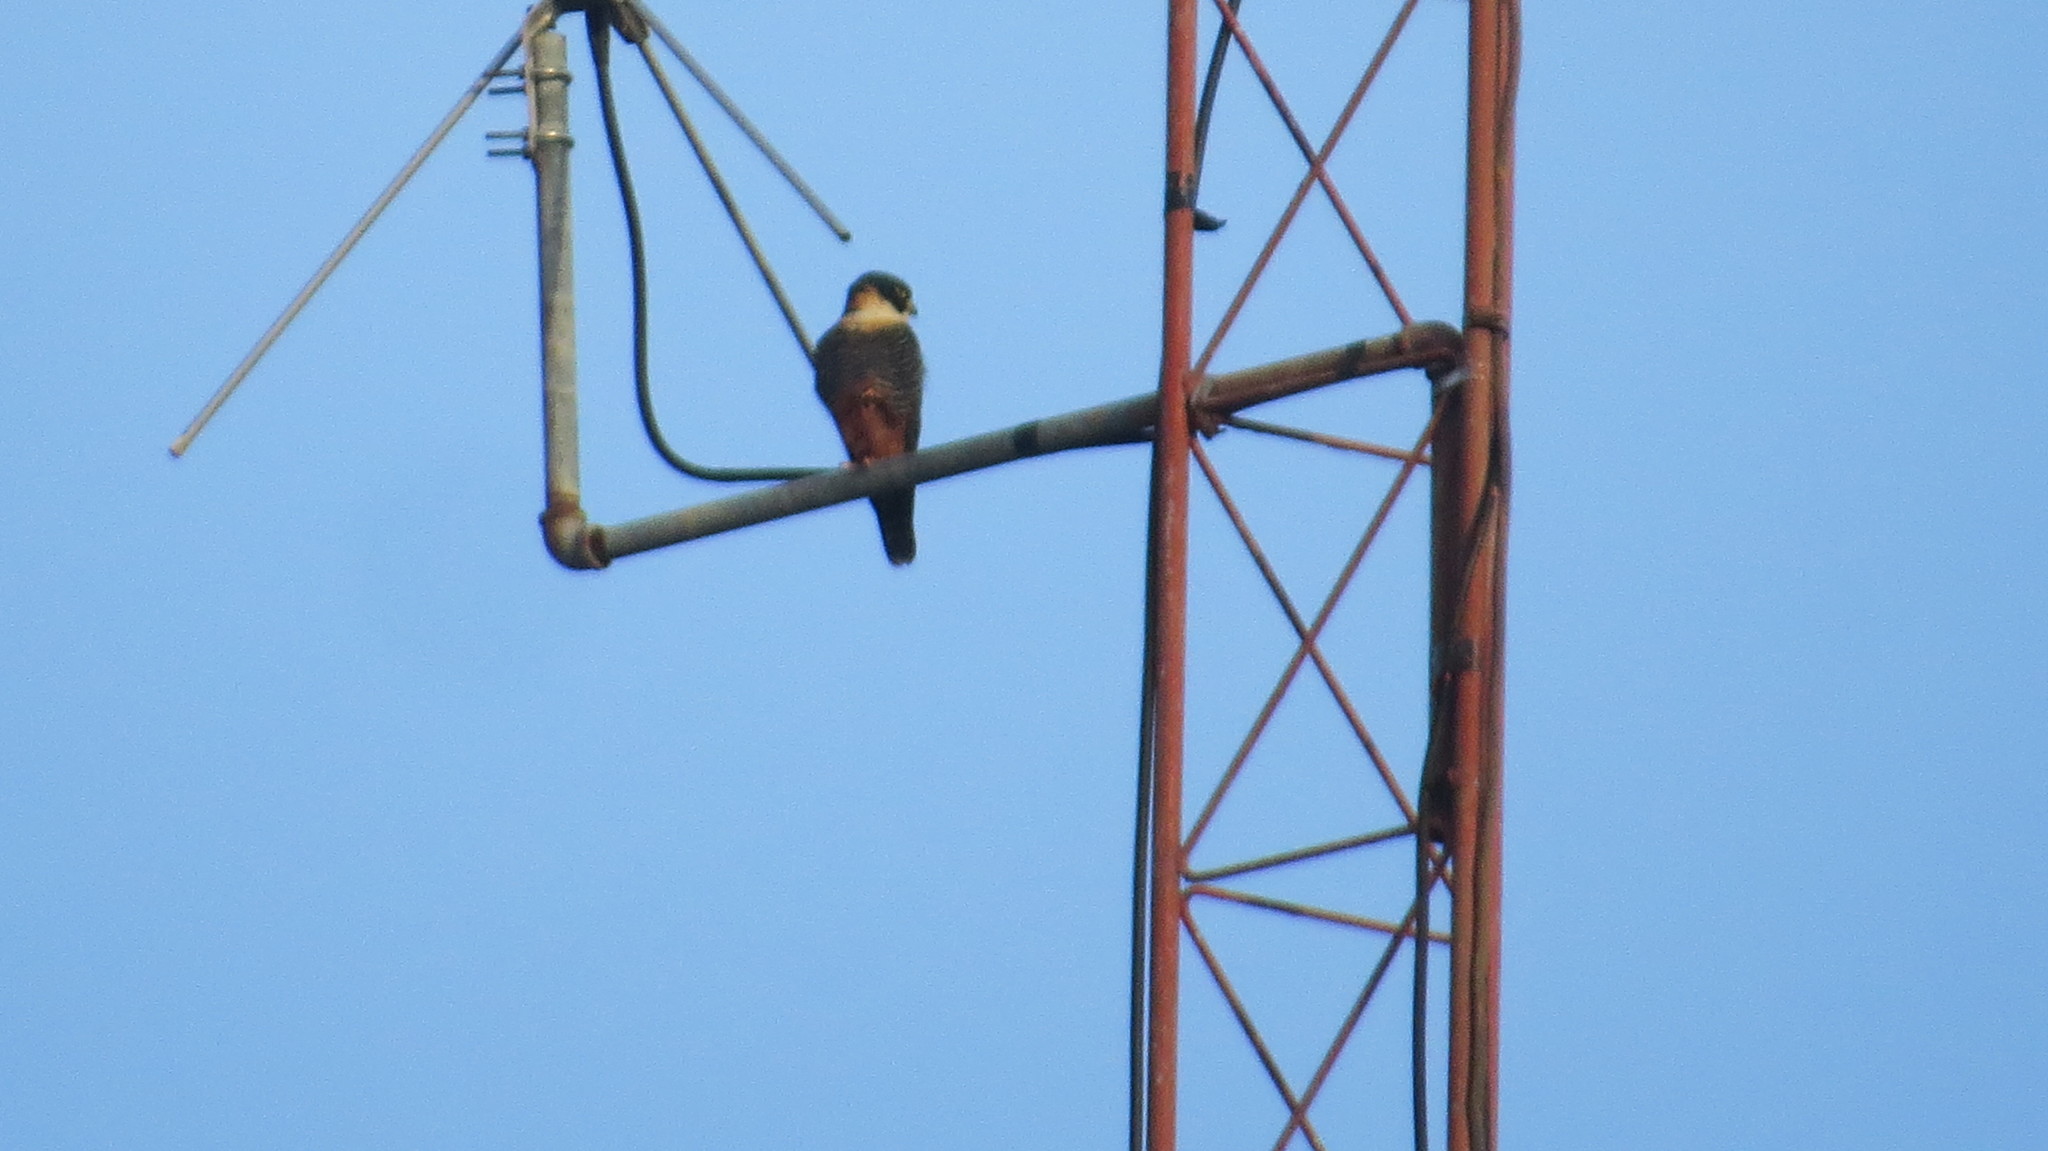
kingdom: Animalia
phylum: Chordata
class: Aves
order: Falconiformes
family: Falconidae
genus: Falco
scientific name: Falco rufigularis
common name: Bat falcon
